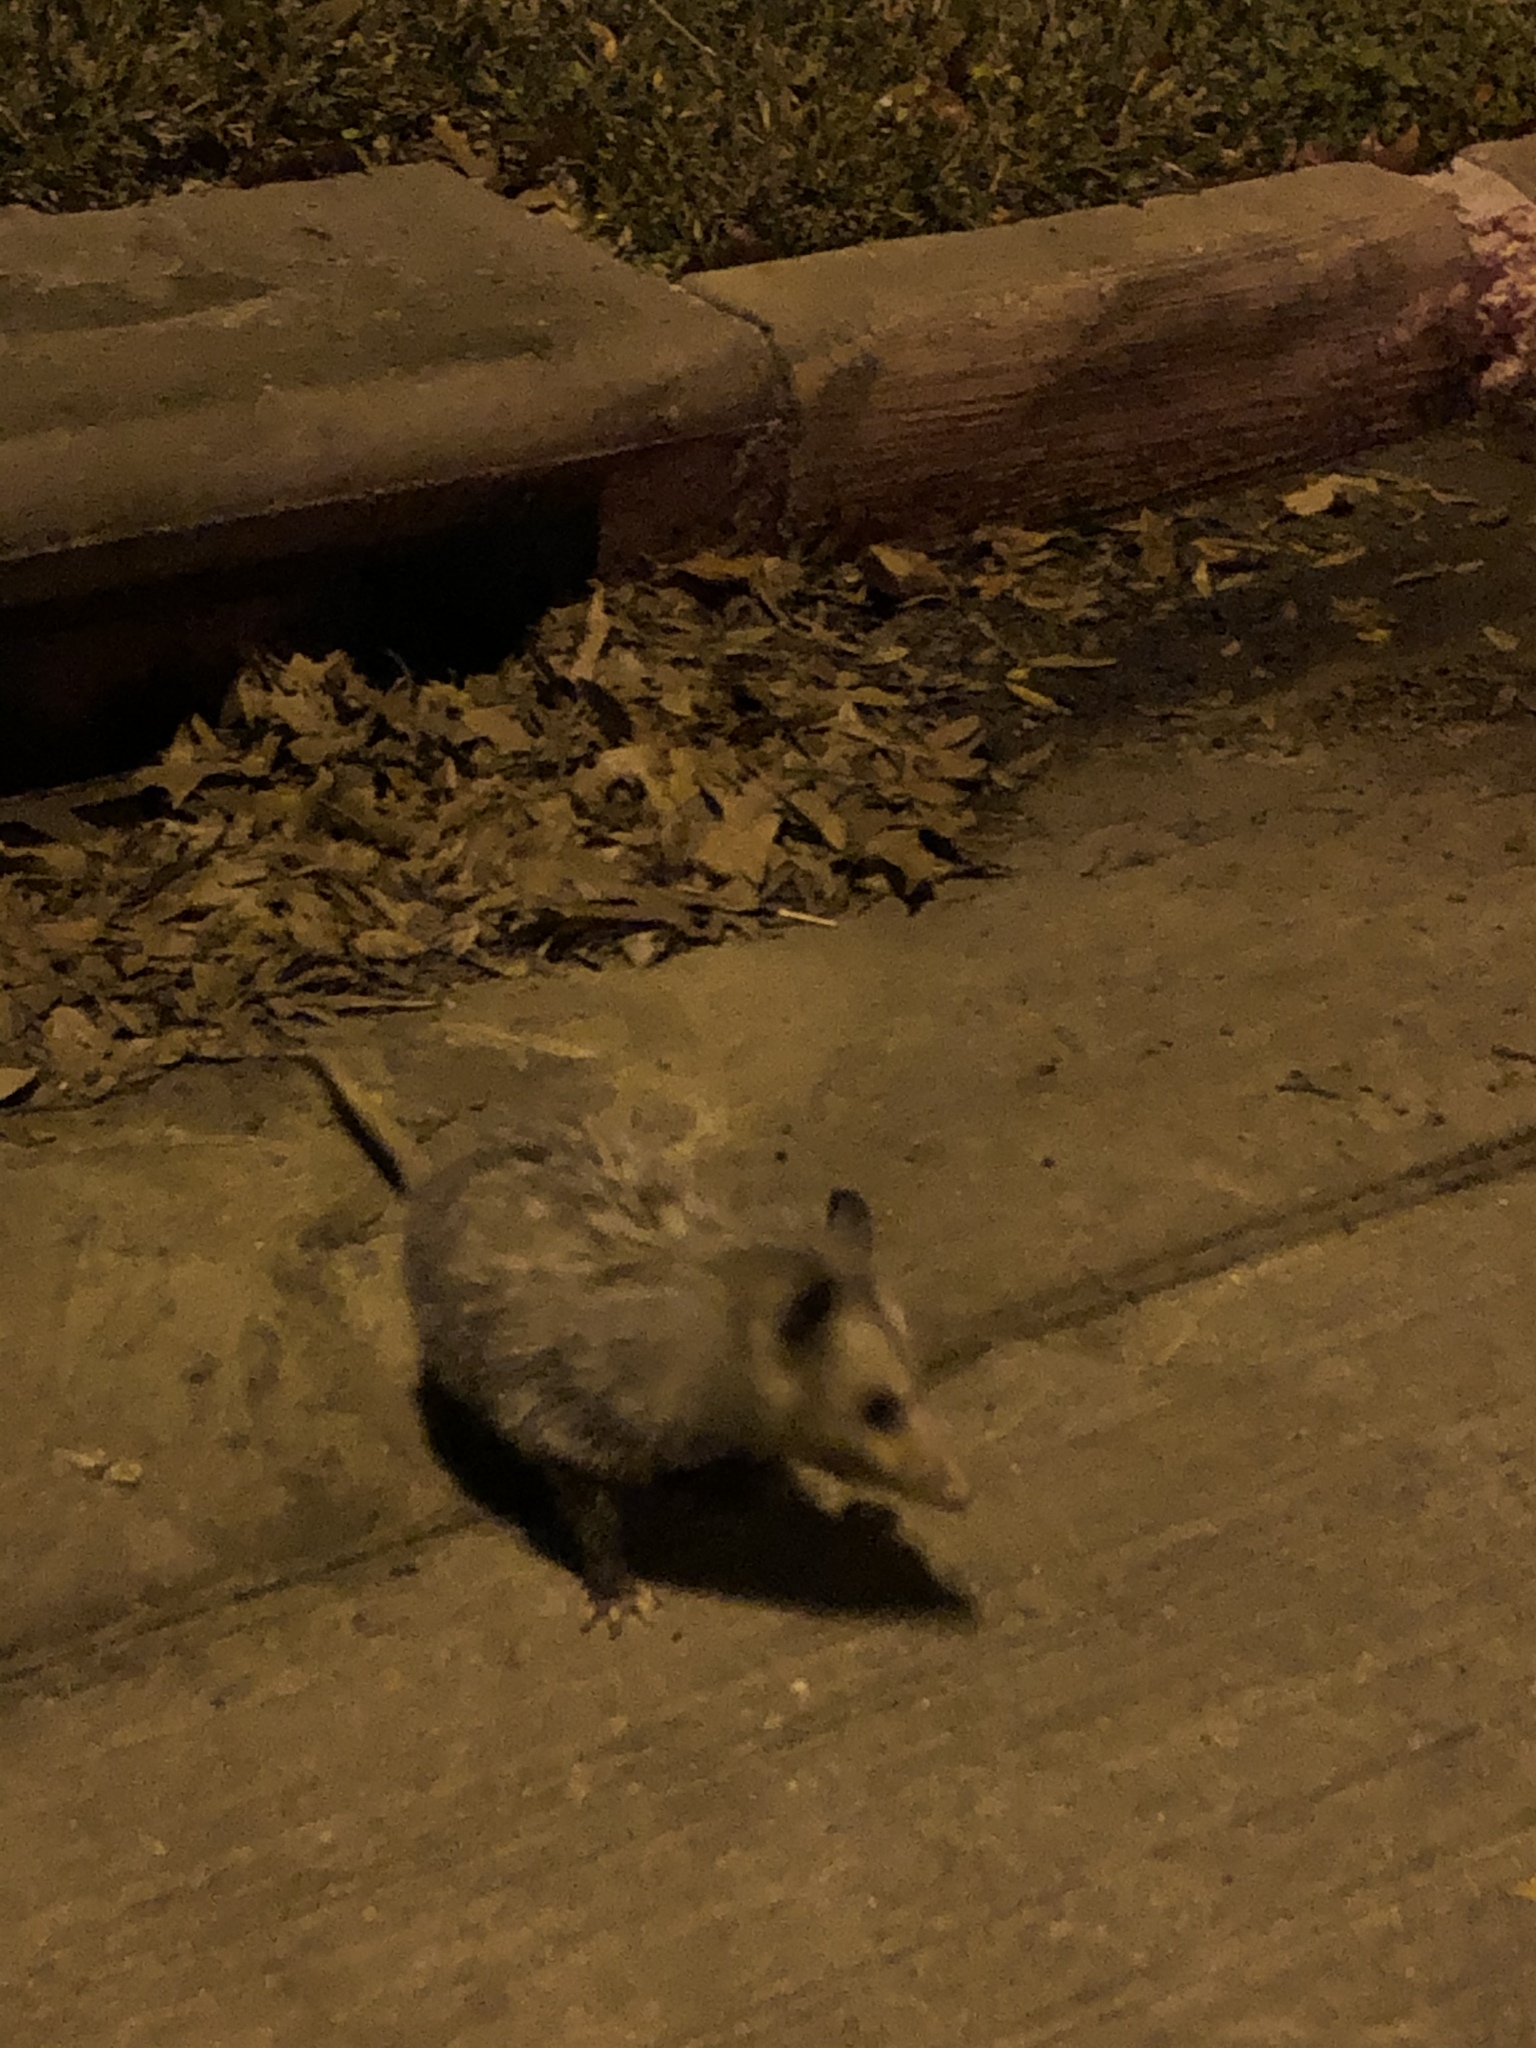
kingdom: Animalia
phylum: Chordata
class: Mammalia
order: Didelphimorphia
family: Didelphidae
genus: Didelphis
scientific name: Didelphis virginiana
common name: Virginia opossum
